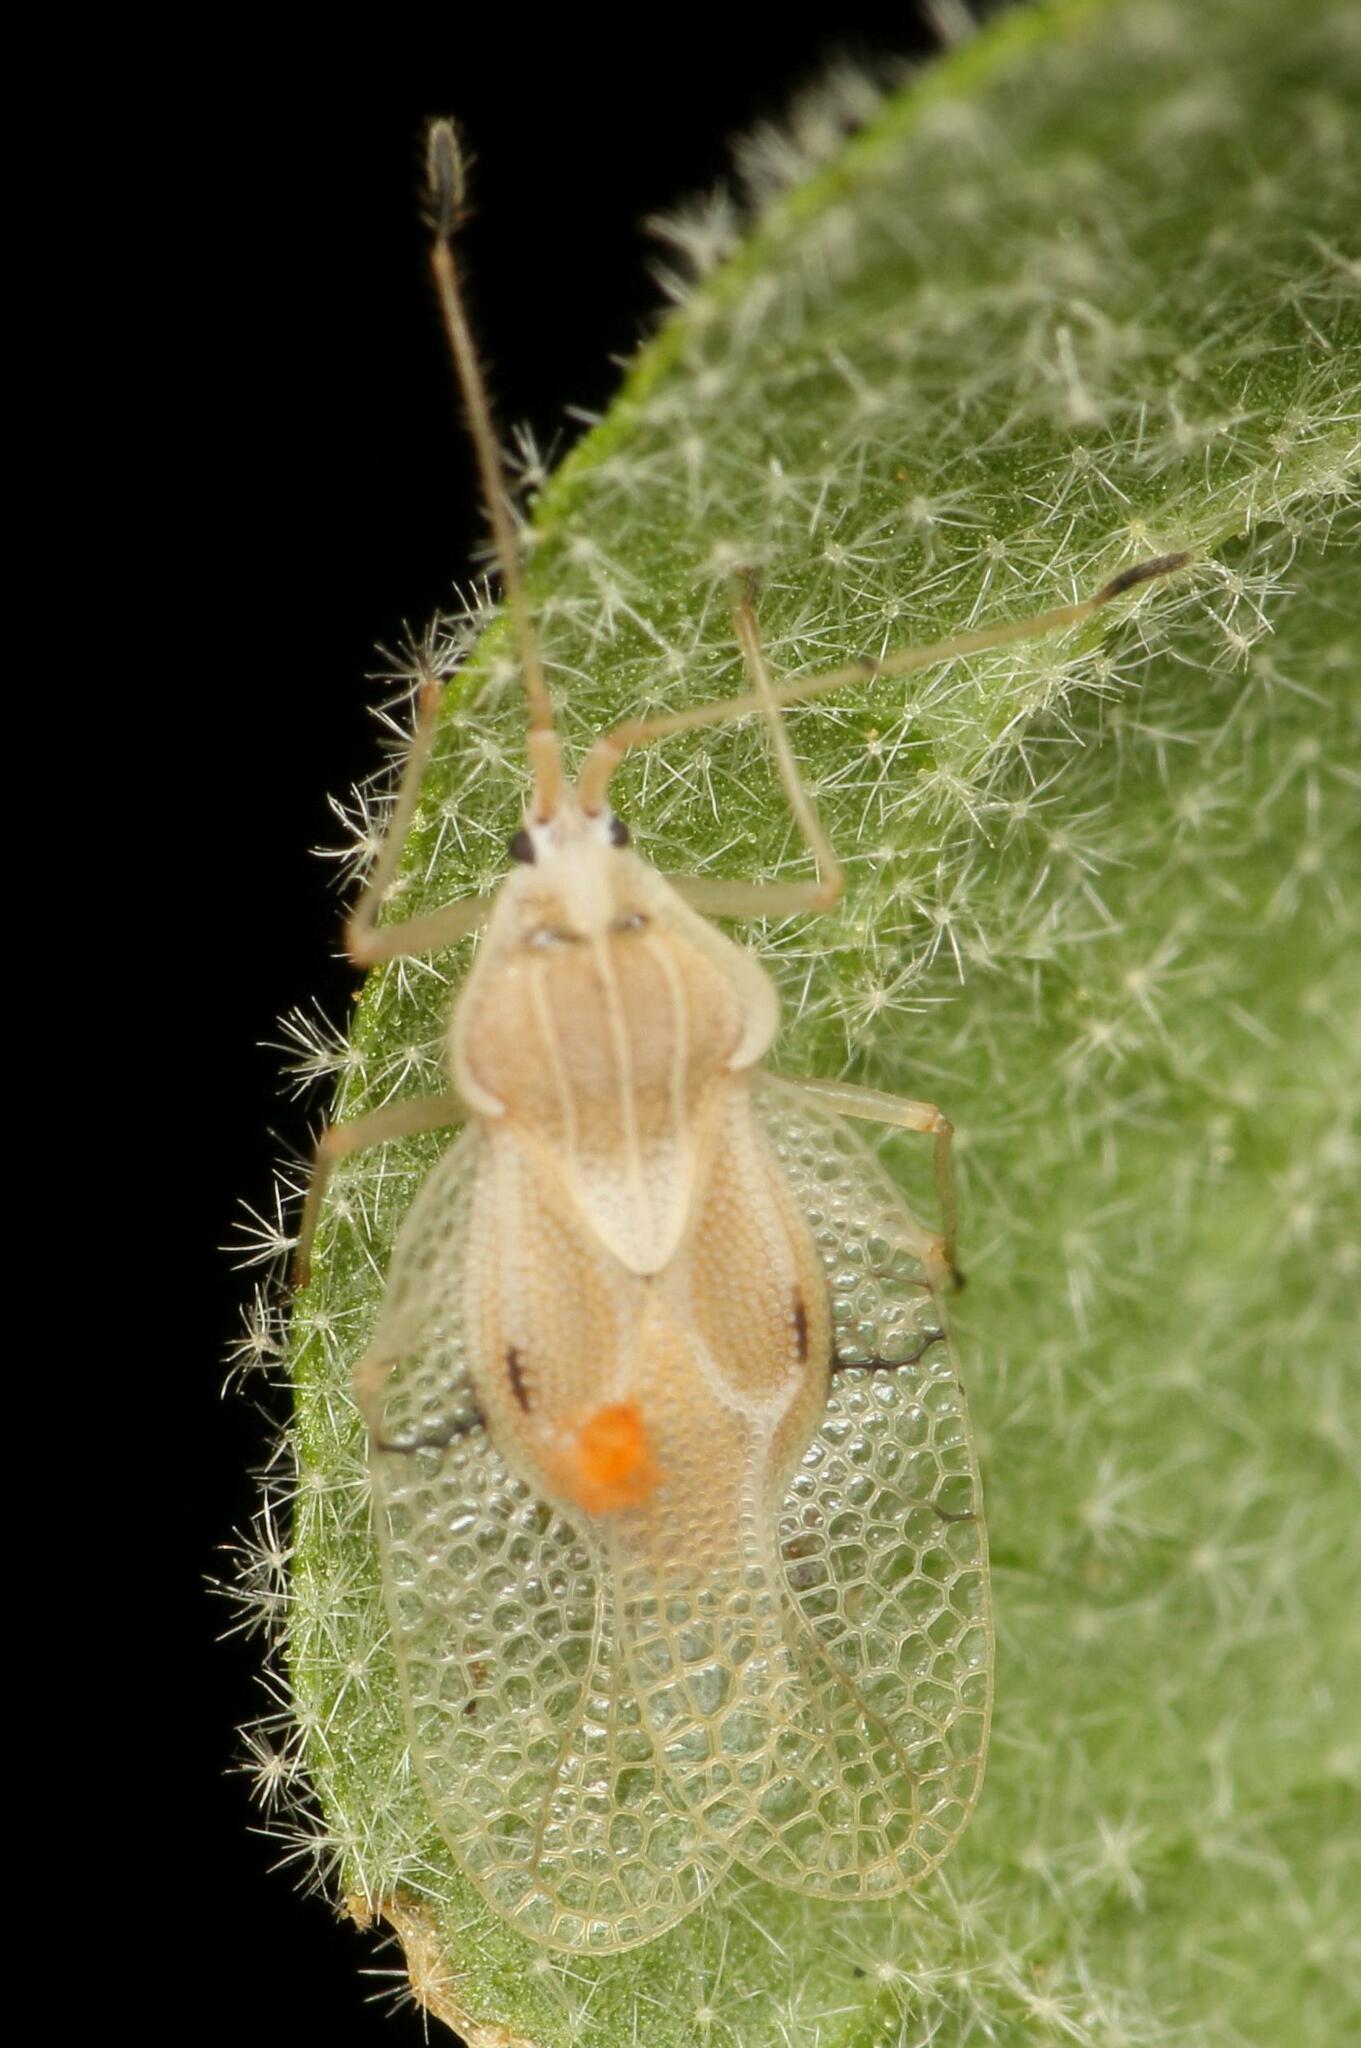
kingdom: Animalia
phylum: Arthropoda
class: Insecta
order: Hemiptera
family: Tingidae
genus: Gargaphia
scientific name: Gargaphia decoris
